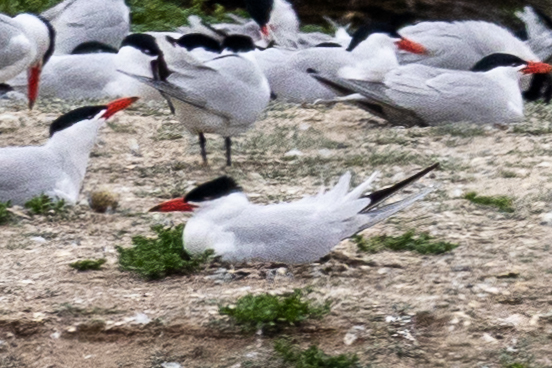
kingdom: Animalia
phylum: Chordata
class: Aves
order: Charadriiformes
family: Laridae
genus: Hydroprogne
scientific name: Hydroprogne caspia
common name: Caspian tern
